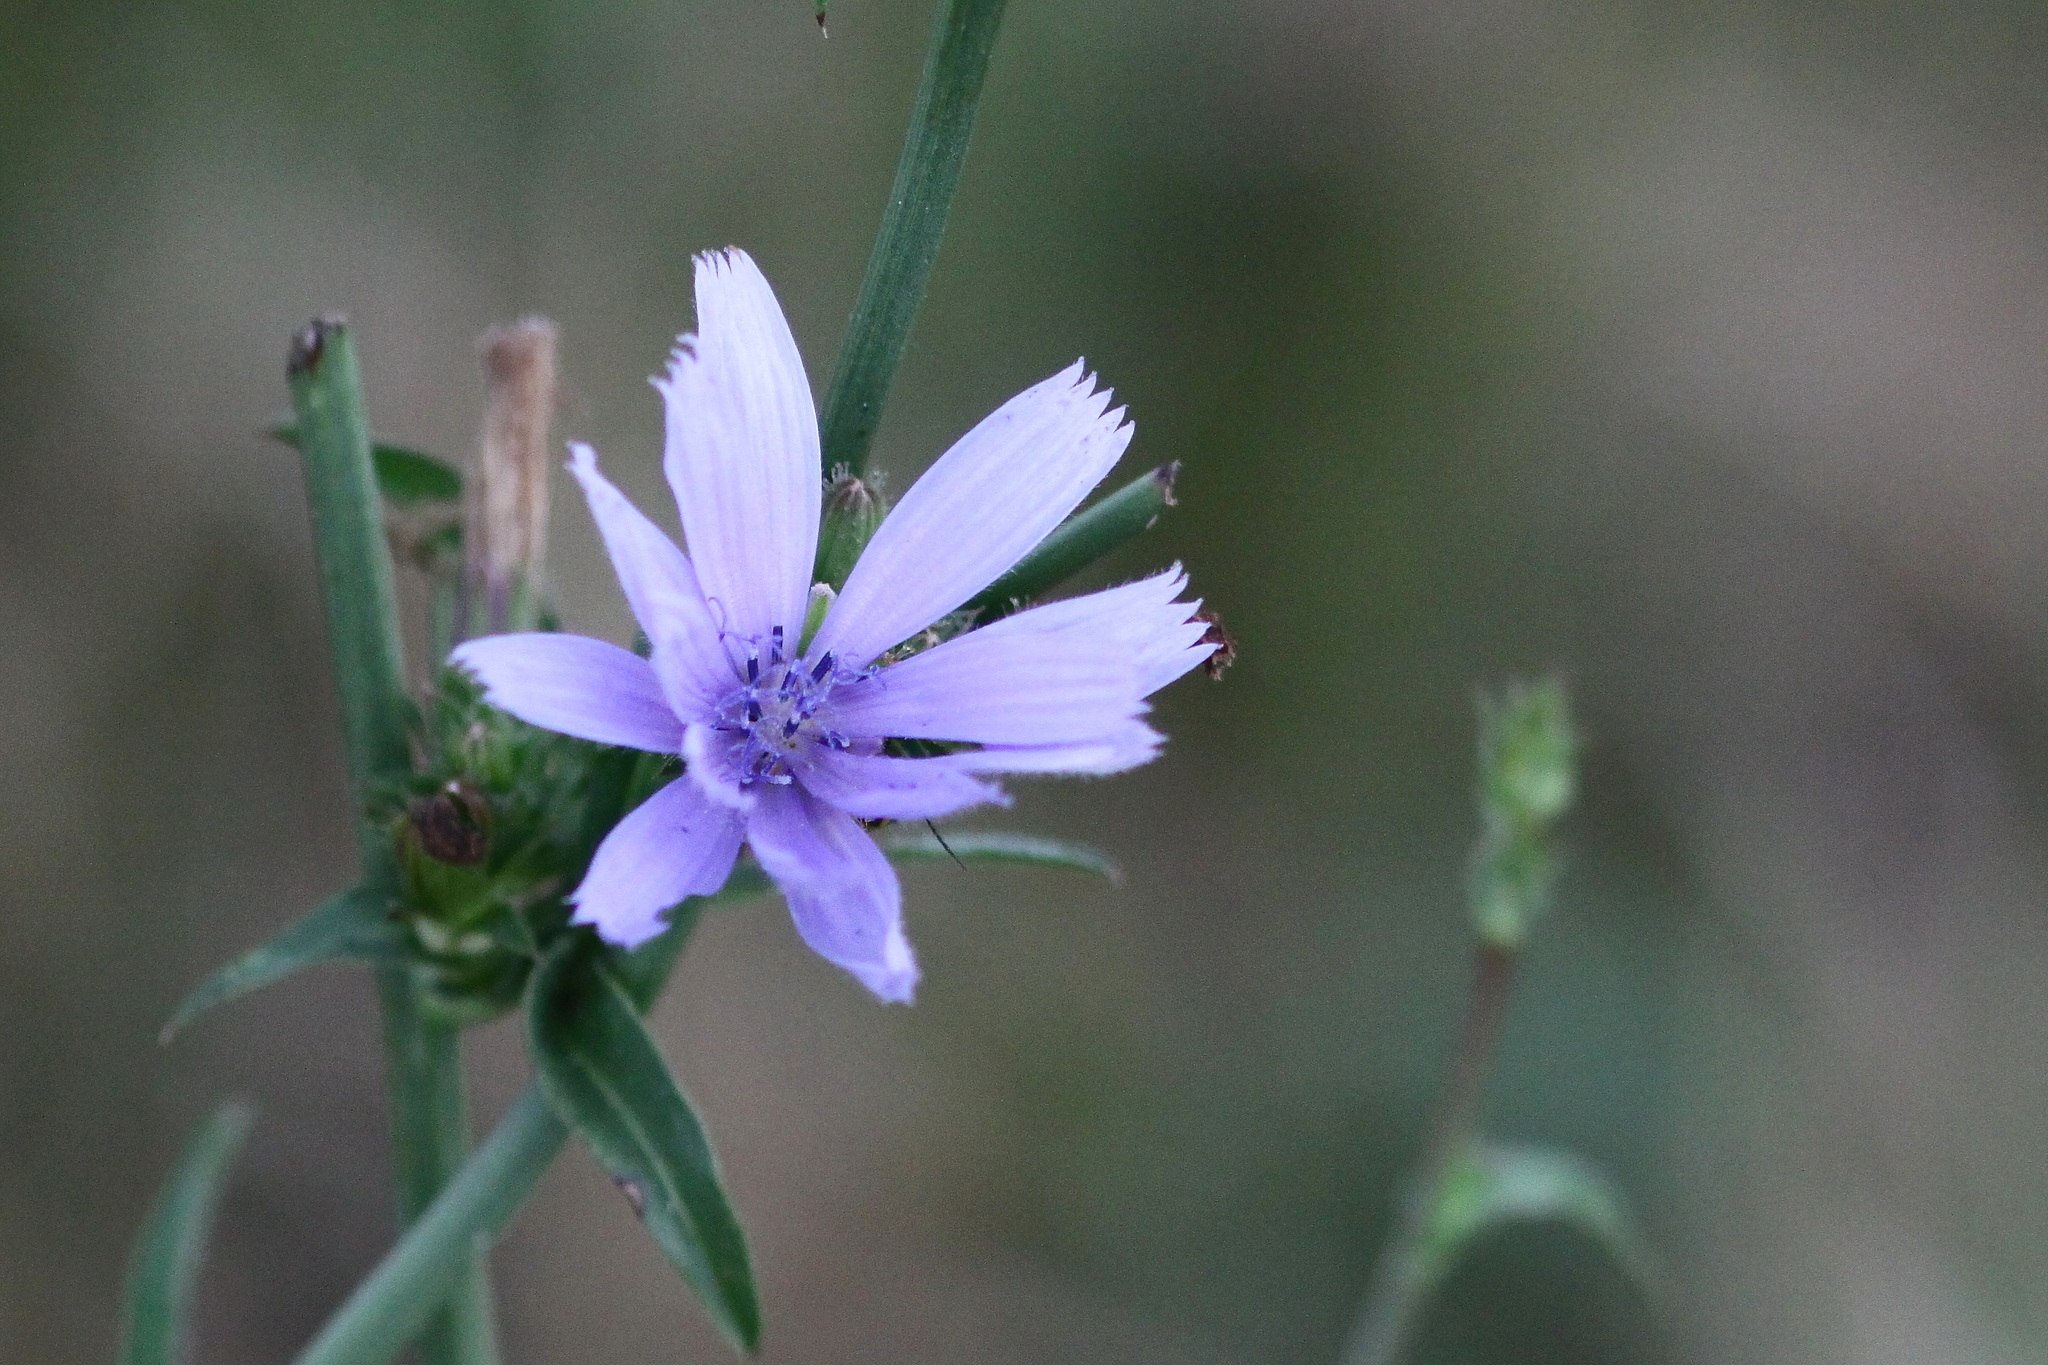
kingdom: Plantae
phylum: Tracheophyta
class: Magnoliopsida
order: Asterales
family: Asteraceae
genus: Cichorium
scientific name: Cichorium intybus
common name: Chicory
